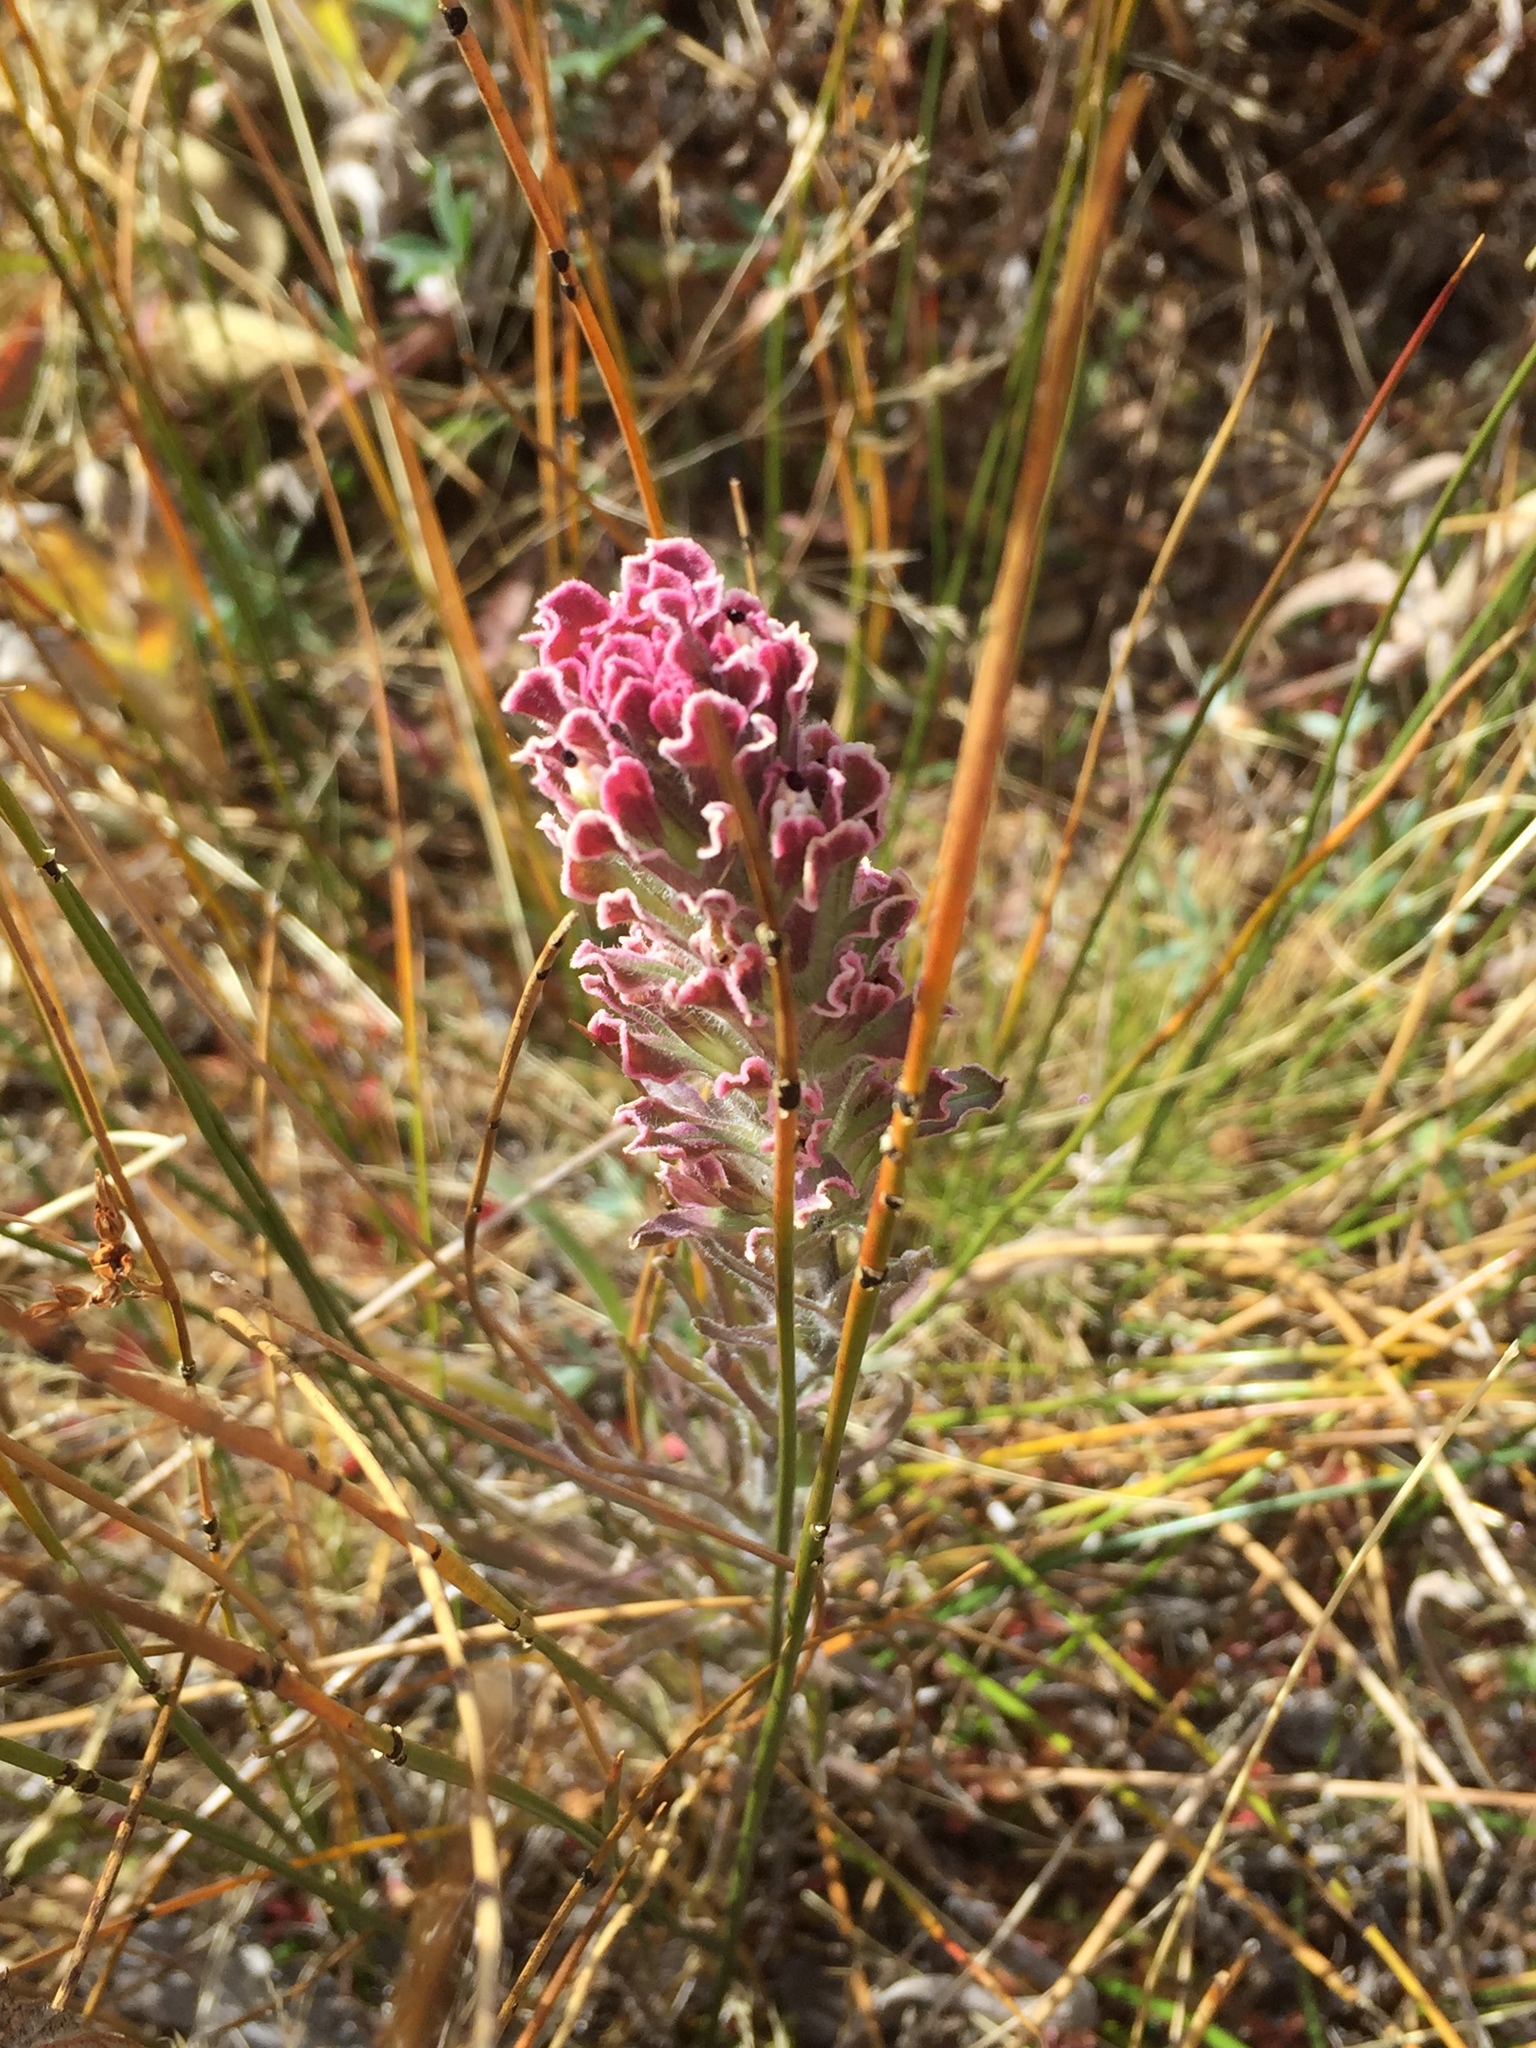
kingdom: Plantae
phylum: Tracheophyta
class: Magnoliopsida
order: Lamiales
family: Orobanchaceae
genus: Castilleja
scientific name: Castilleja pilosa
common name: Hairy paintbrush
